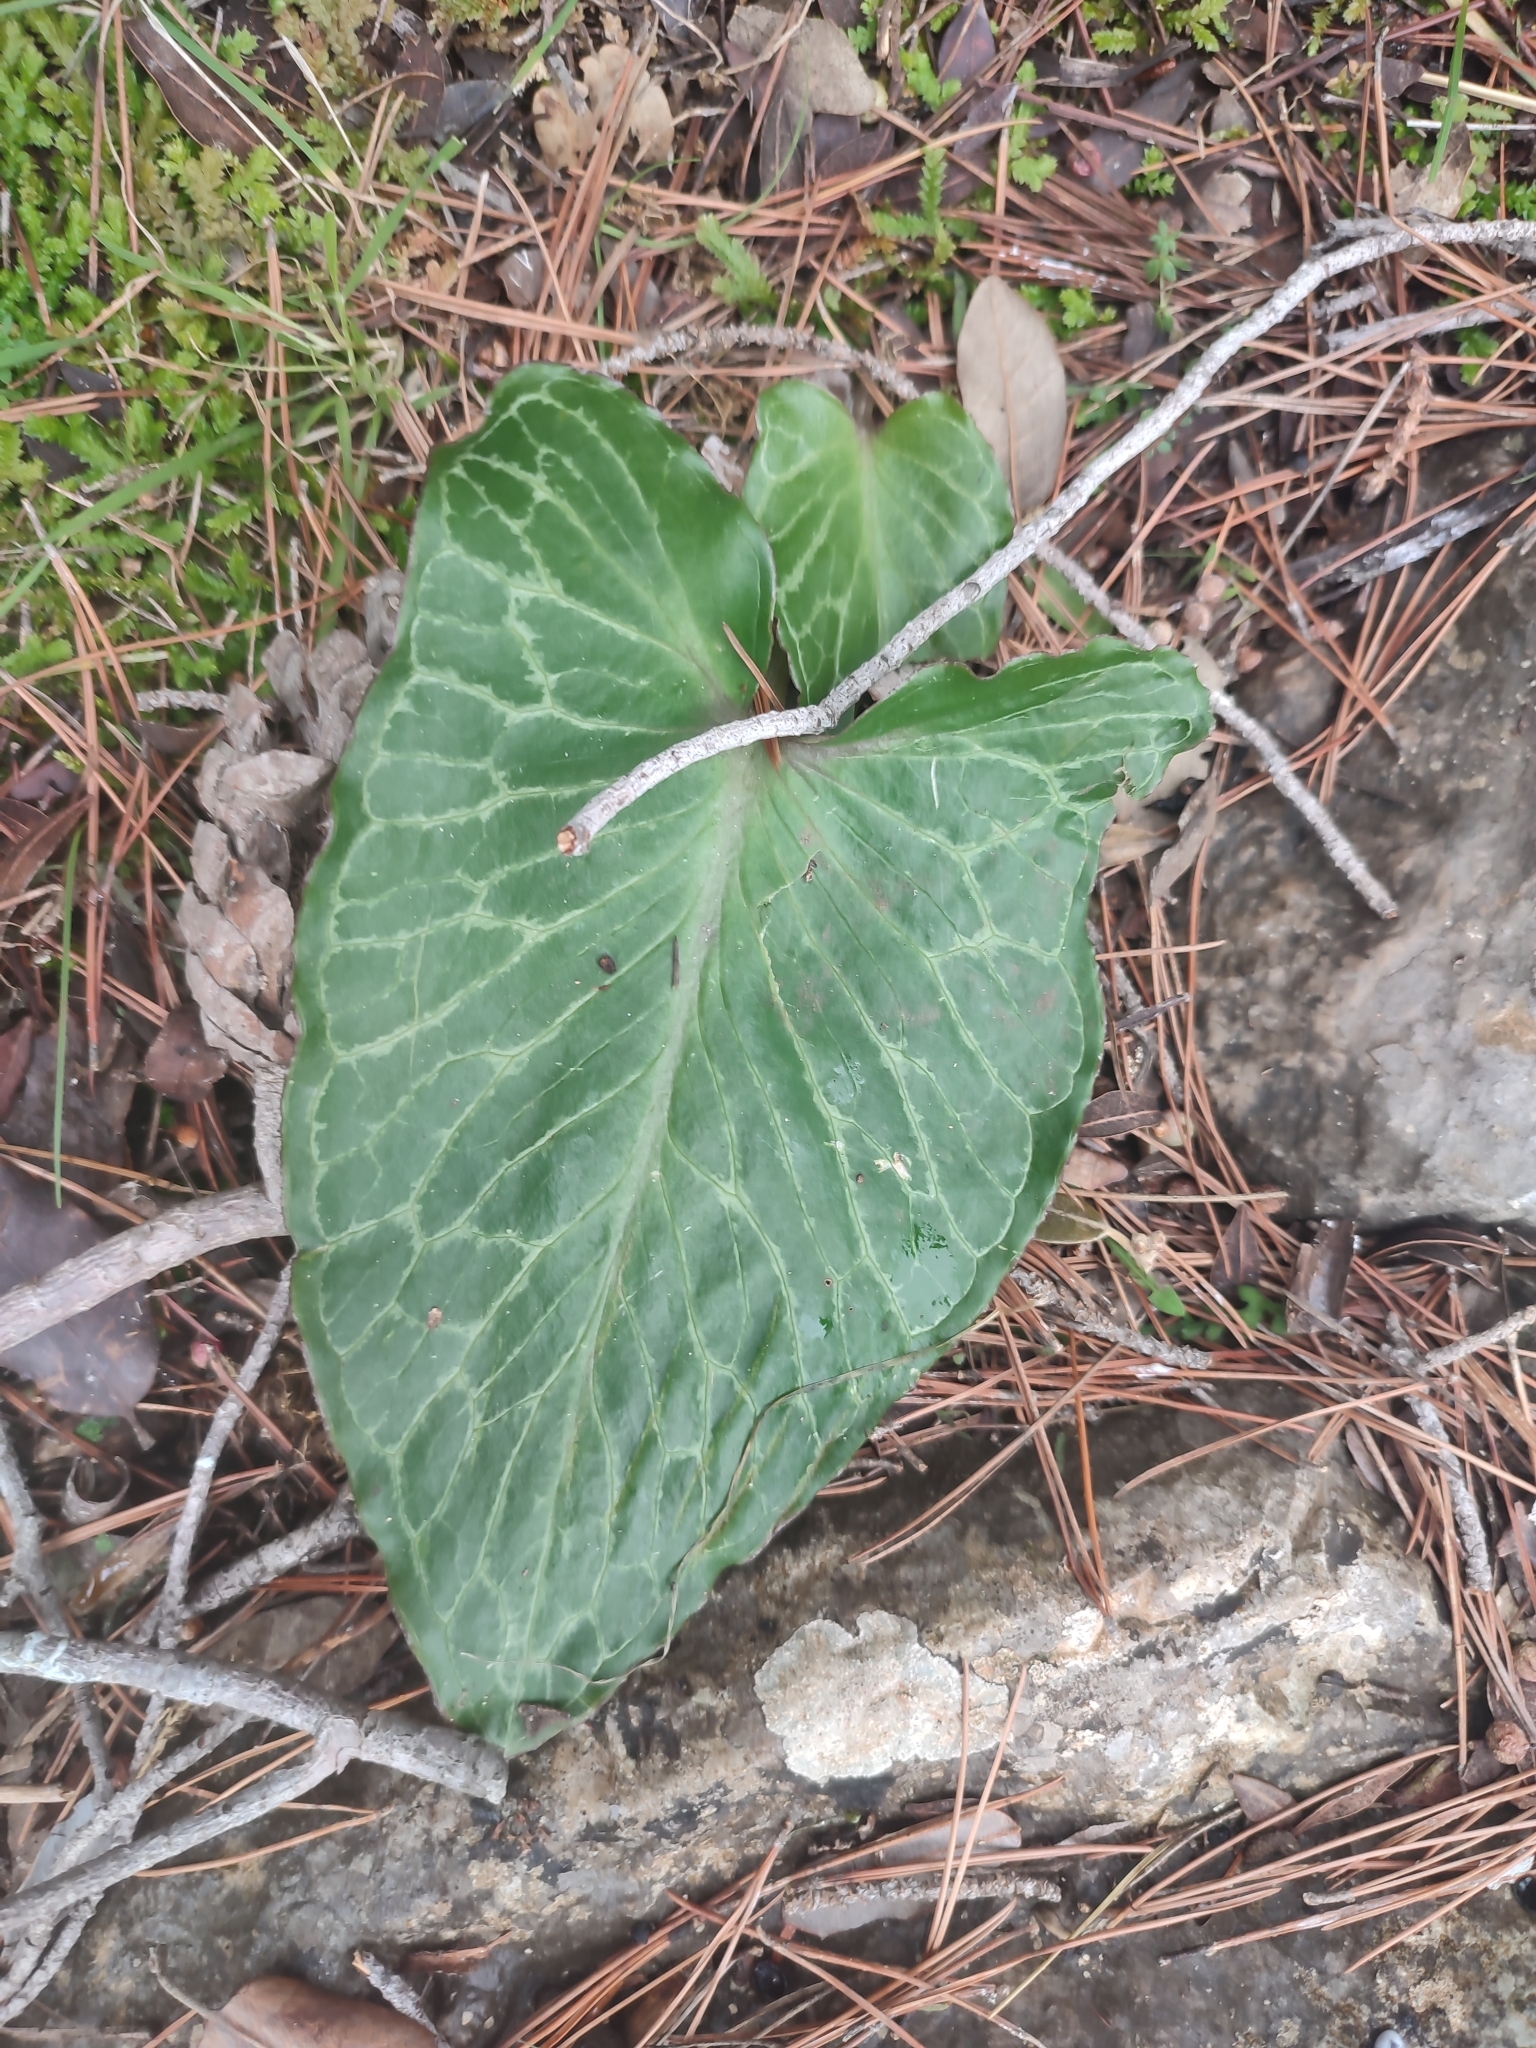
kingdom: Plantae
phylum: Tracheophyta
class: Liliopsida
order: Alismatales
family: Araceae
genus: Arum
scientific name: Arum pictum
